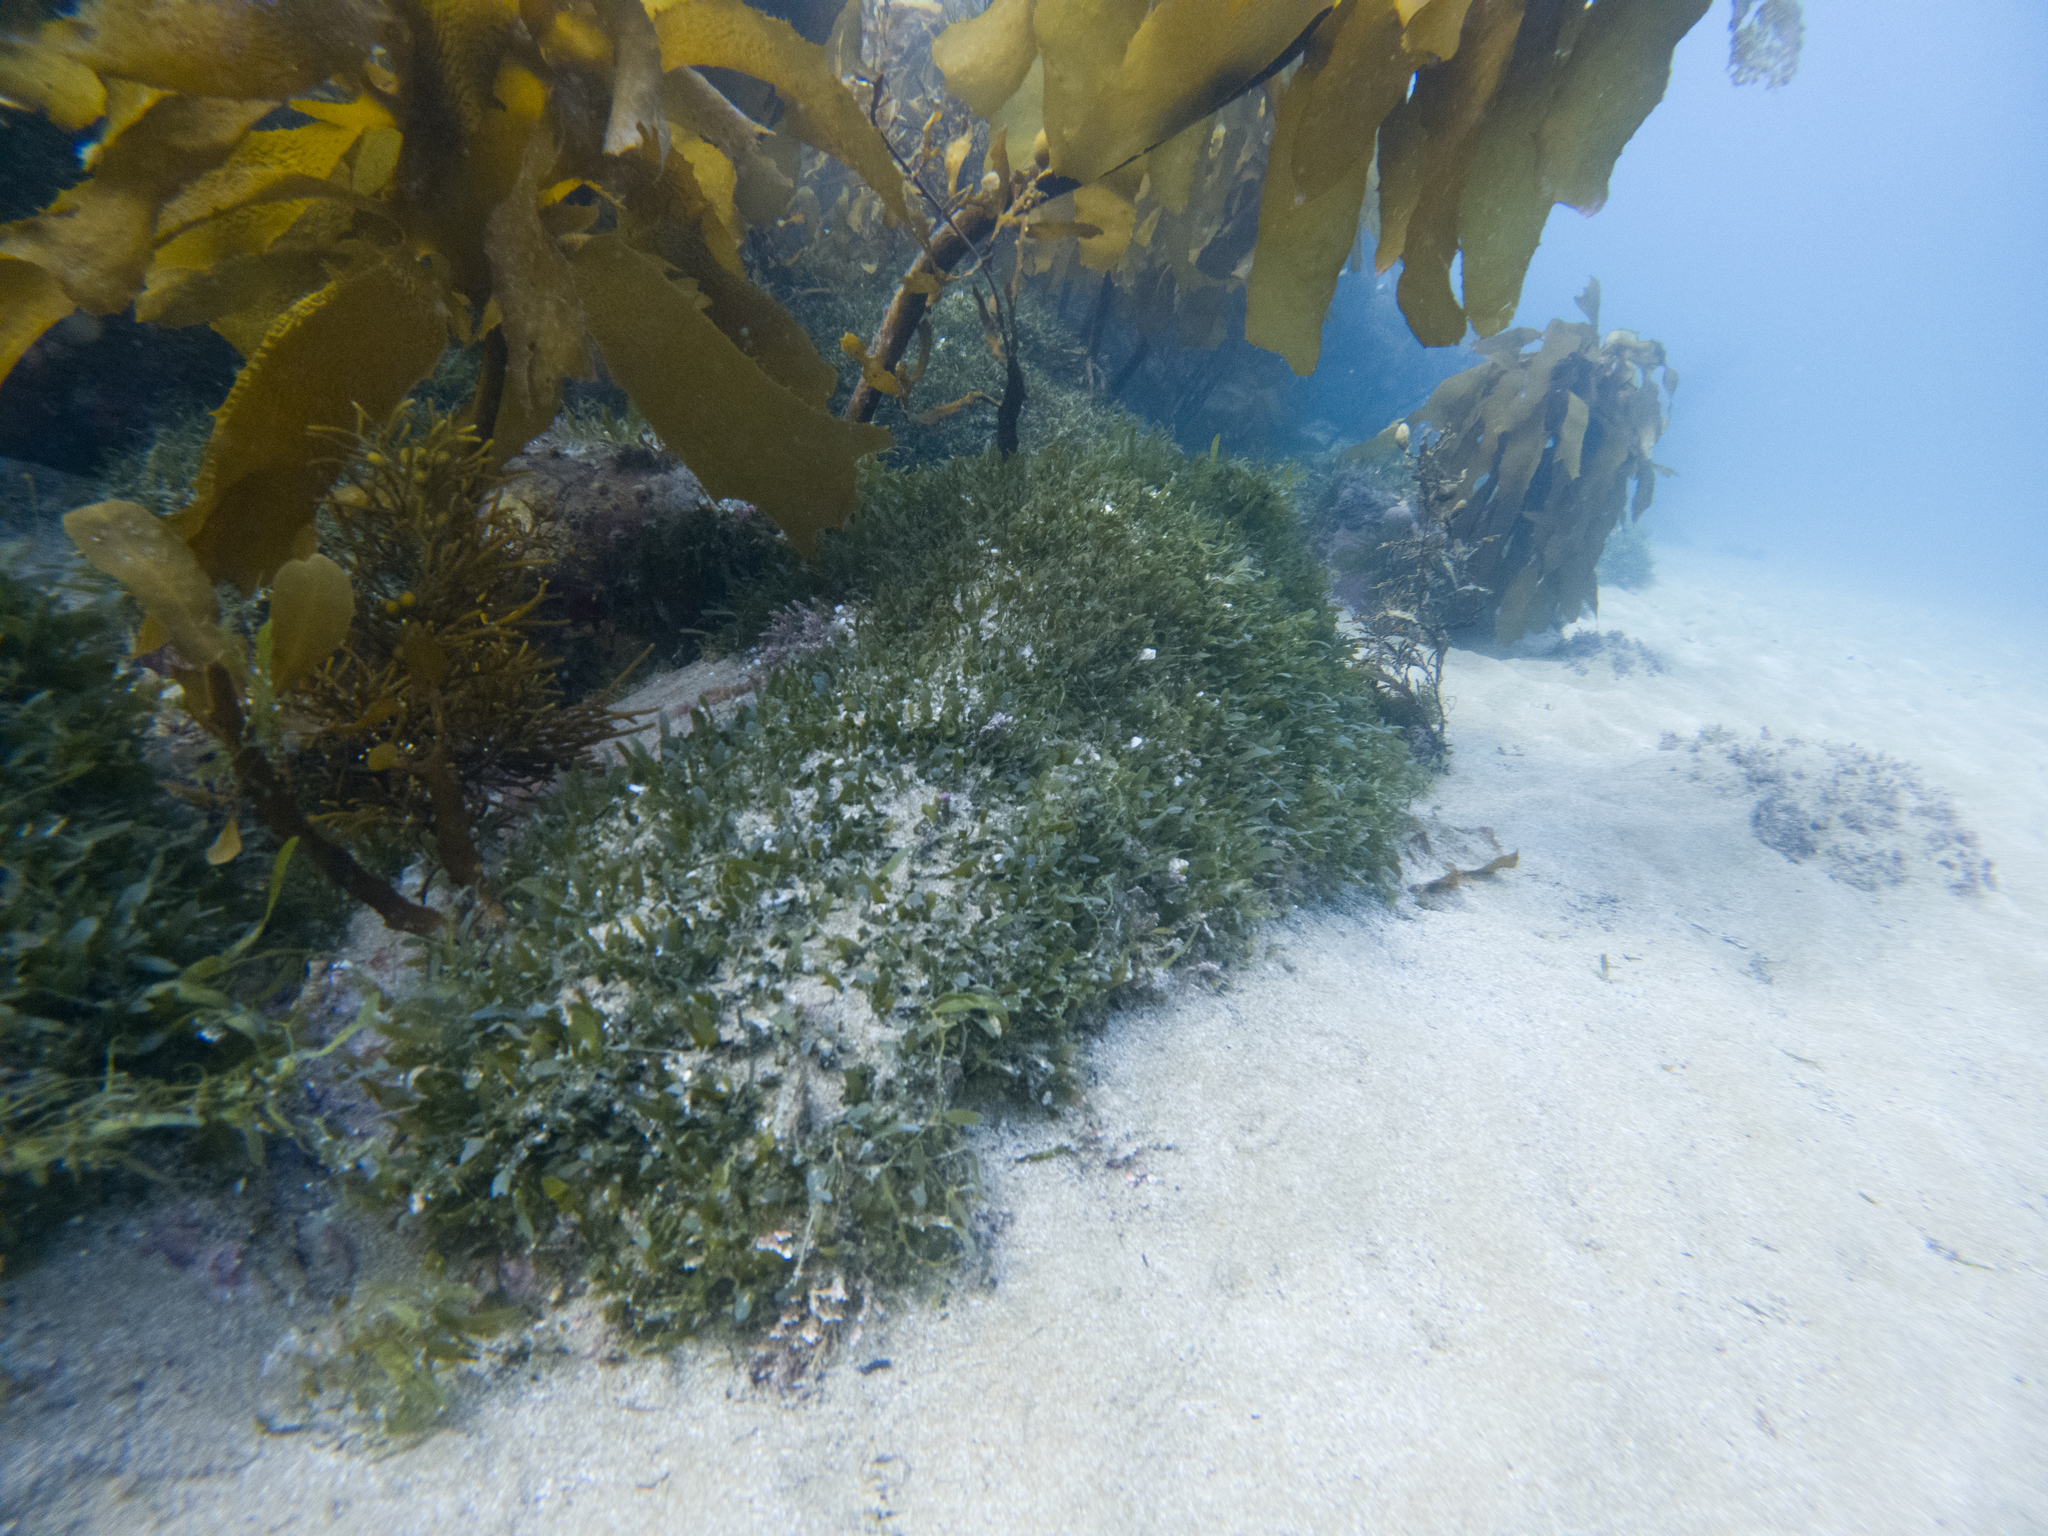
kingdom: Plantae
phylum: Chlorophyta
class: Ulvophyceae
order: Bryopsidales
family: Caulerpaceae
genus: Caulerpa
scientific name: Caulerpa brachypus
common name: Macroalgae
